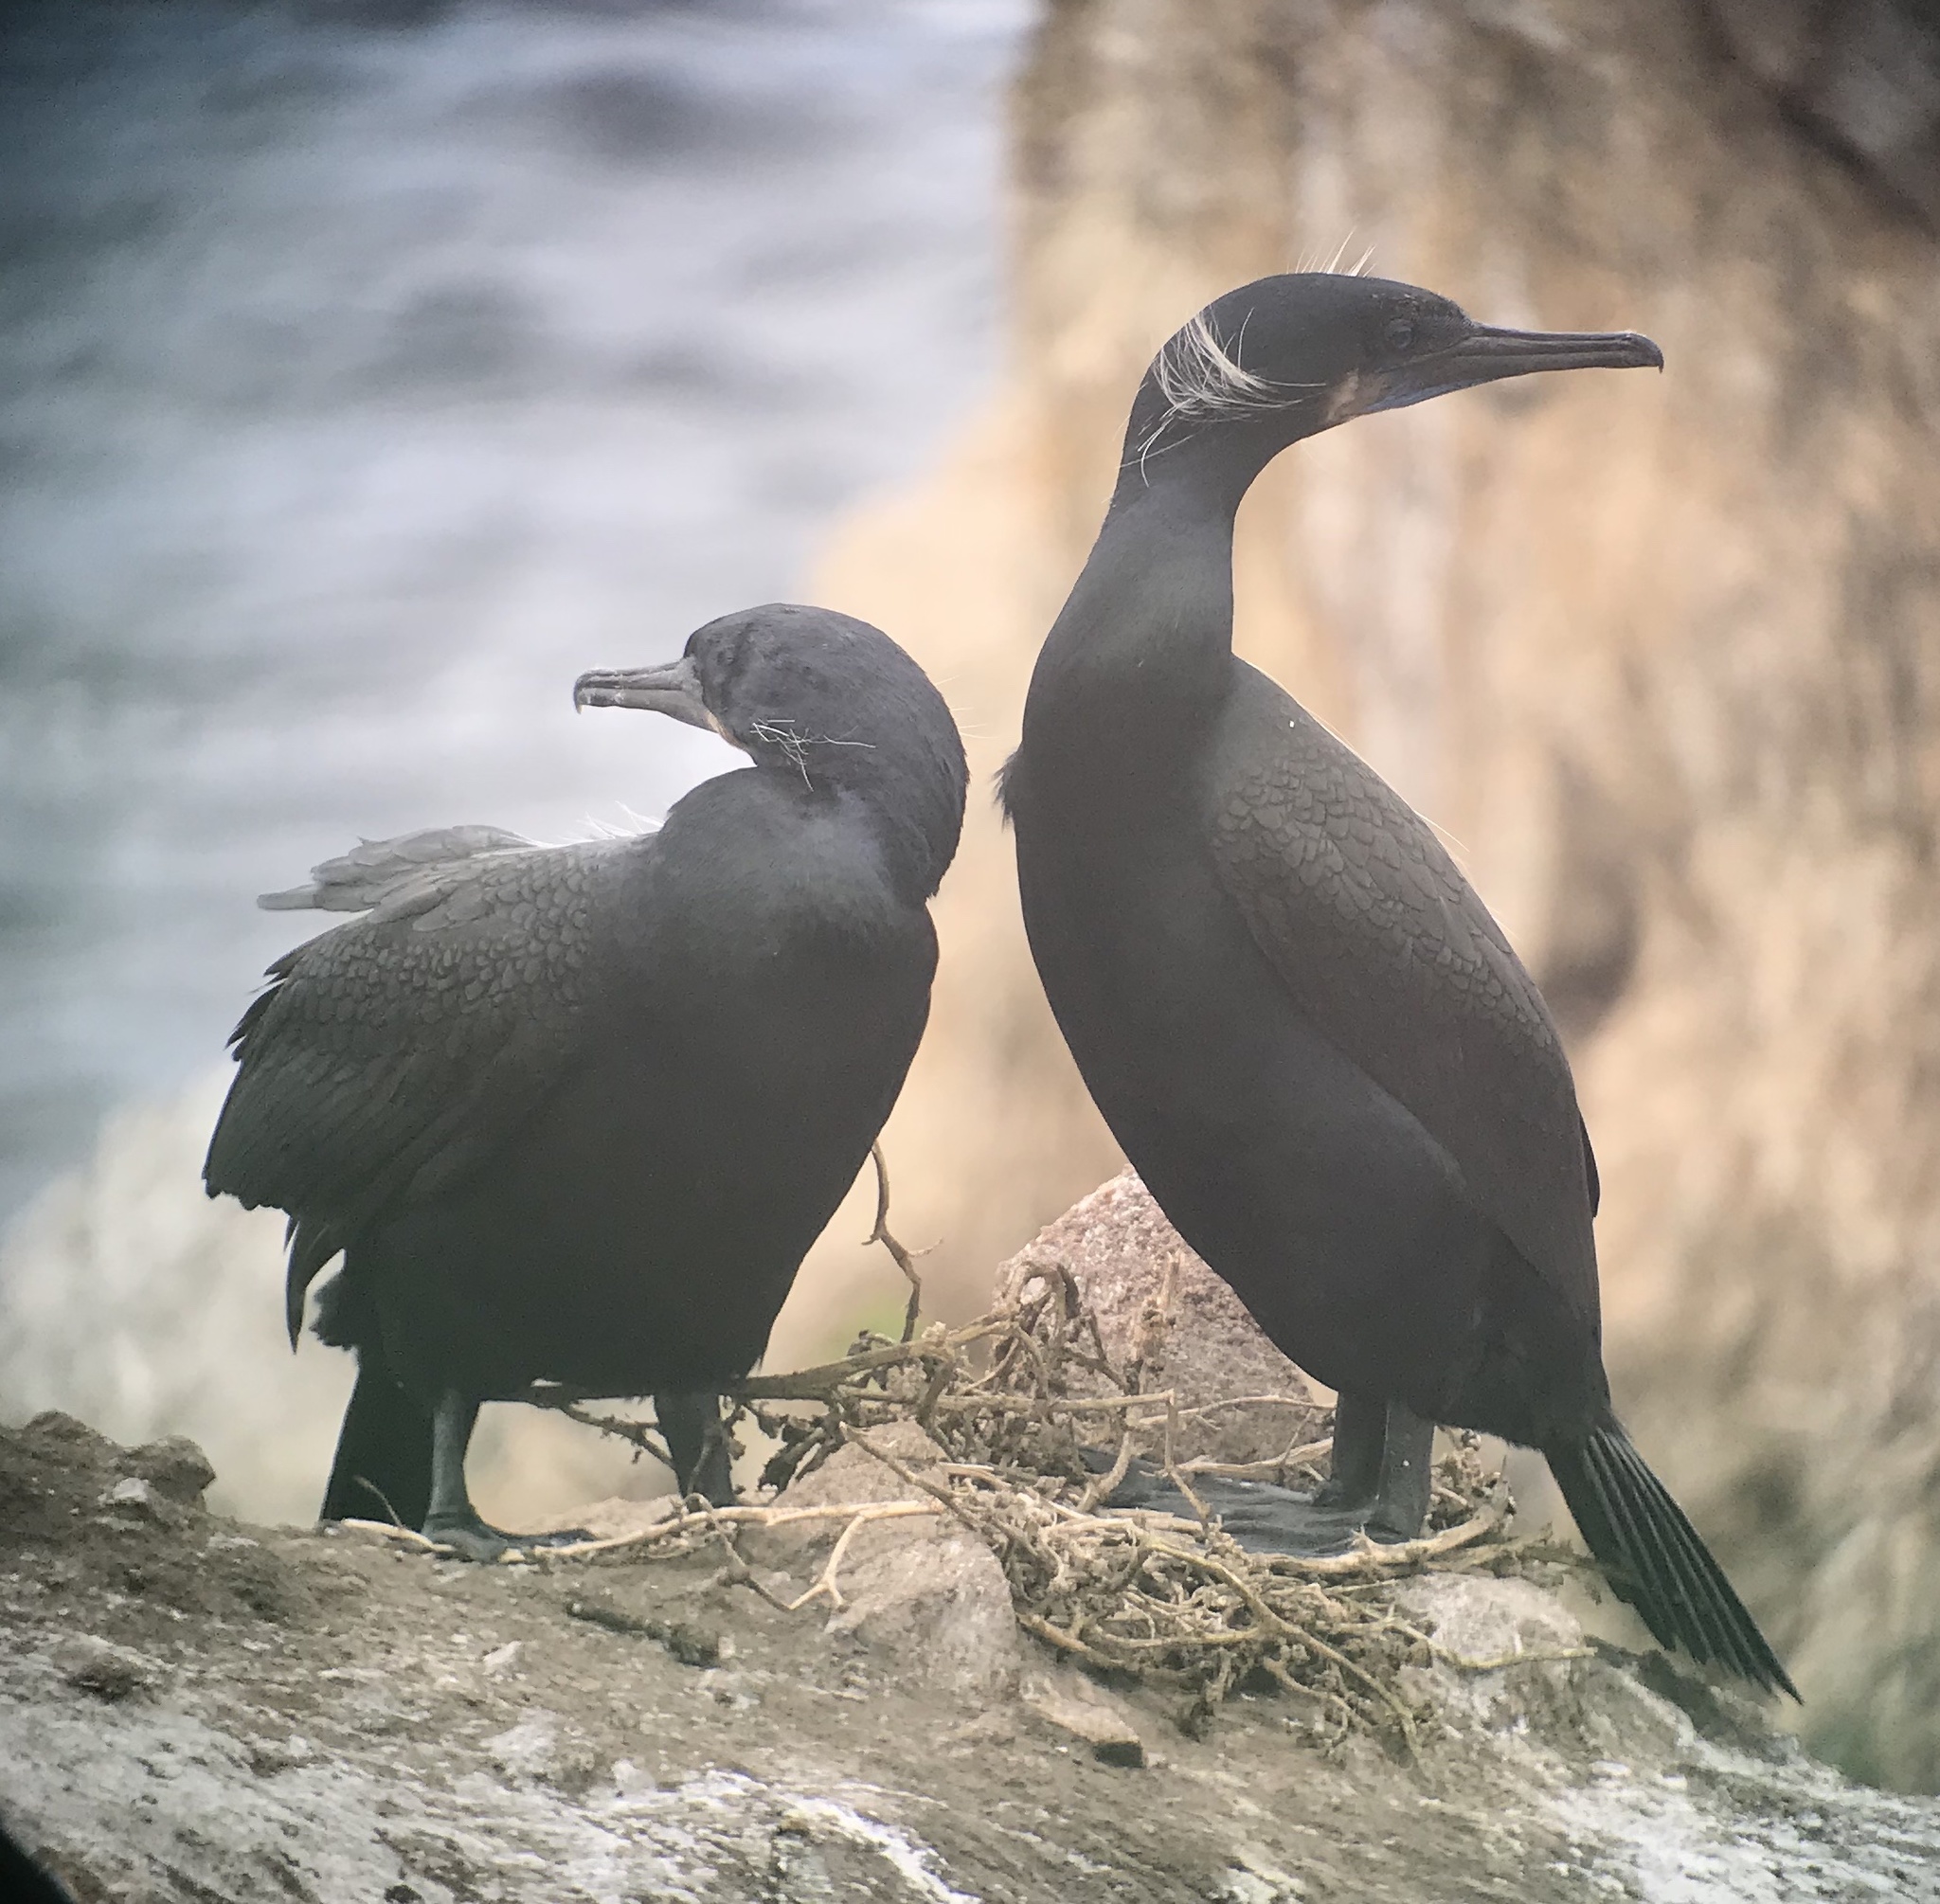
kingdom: Animalia
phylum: Chordata
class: Aves
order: Suliformes
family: Phalacrocoracidae
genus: Urile
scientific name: Urile penicillatus
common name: Brandt's cormorant
